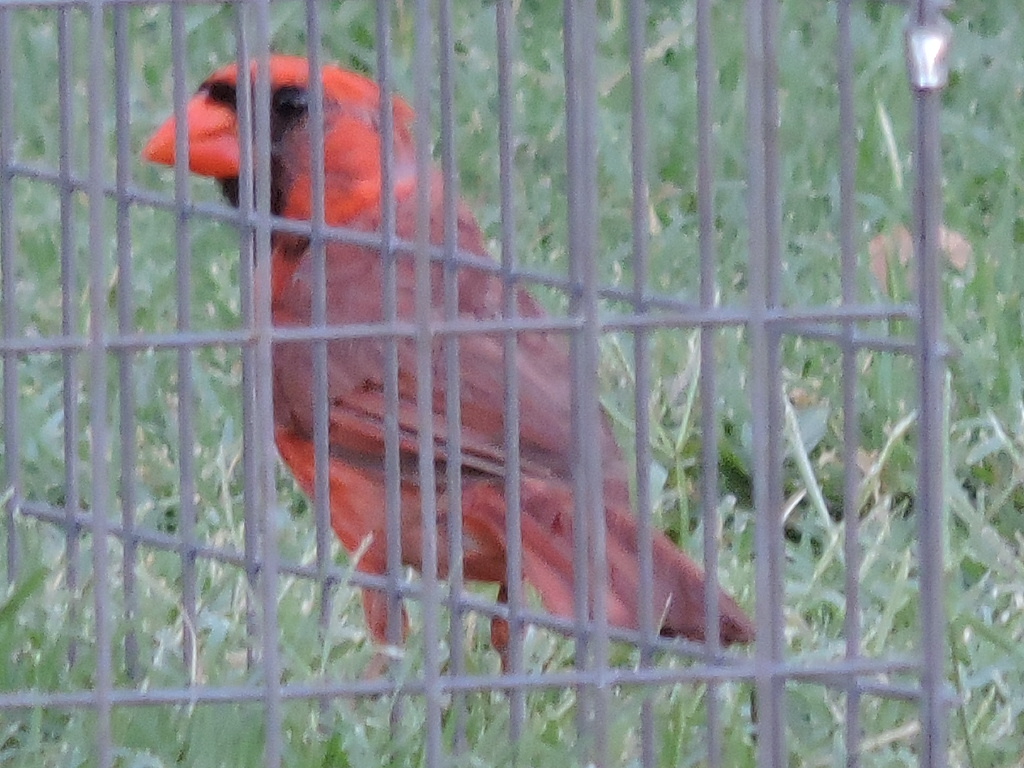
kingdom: Animalia
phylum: Chordata
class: Aves
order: Passeriformes
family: Cardinalidae
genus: Cardinalis
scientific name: Cardinalis cardinalis
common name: Northern cardinal
